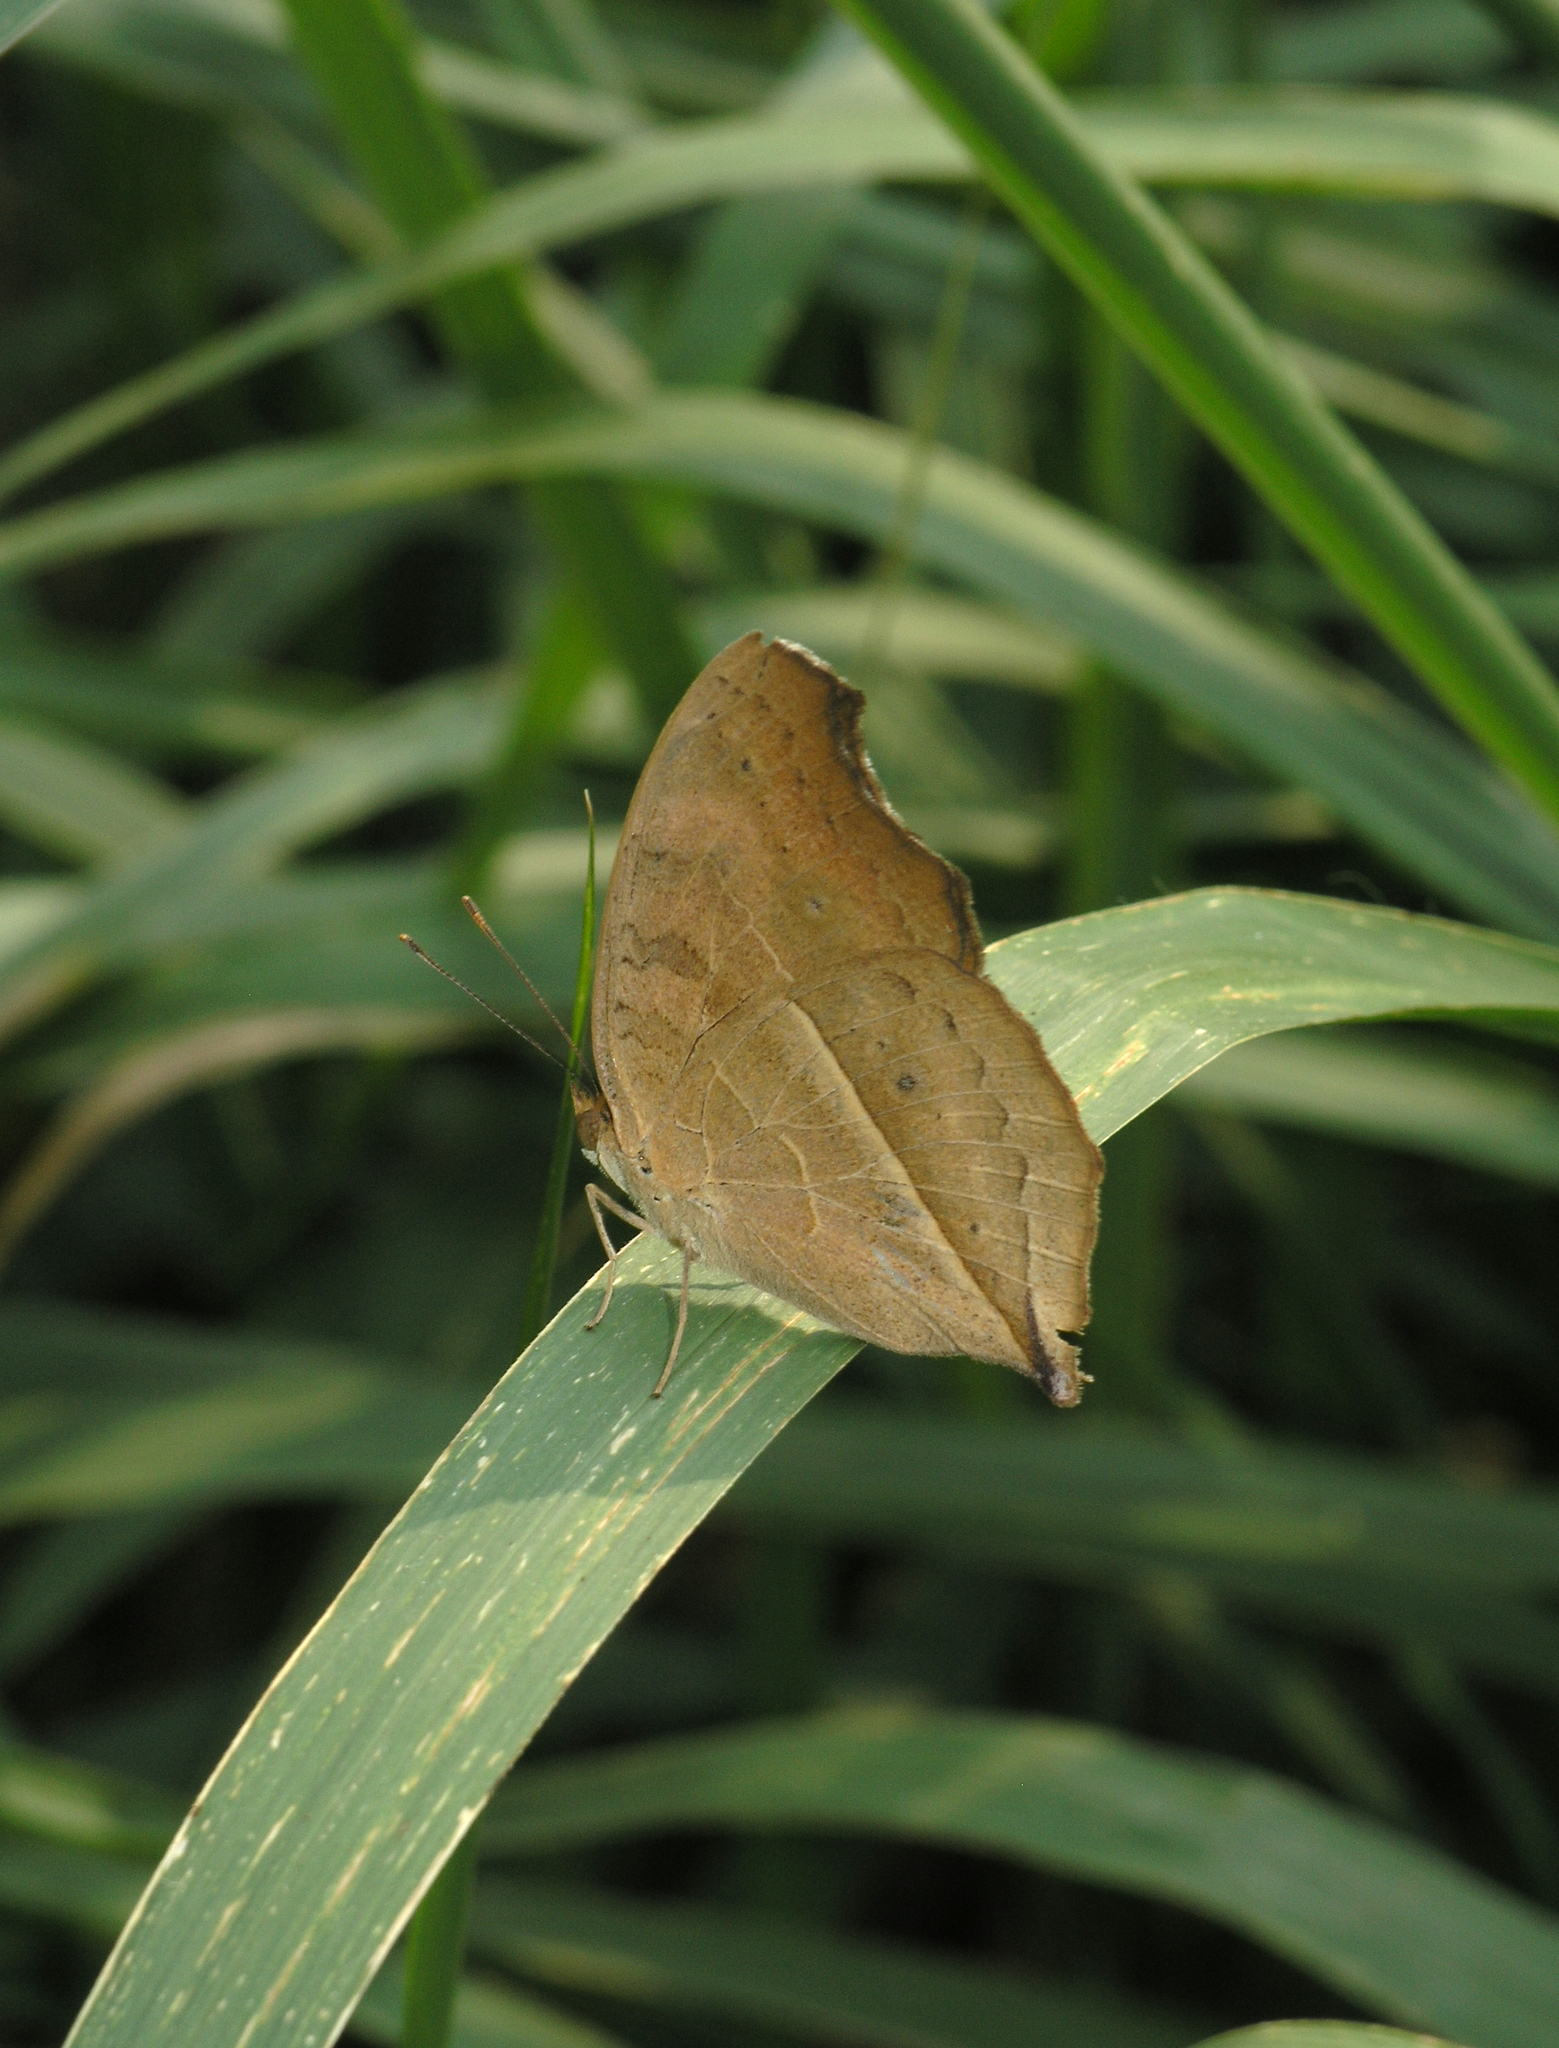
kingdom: Animalia
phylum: Arthropoda
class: Insecta
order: Lepidoptera
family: Nymphalidae
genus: Junonia
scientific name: Junonia almana
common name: Peacock pansy
